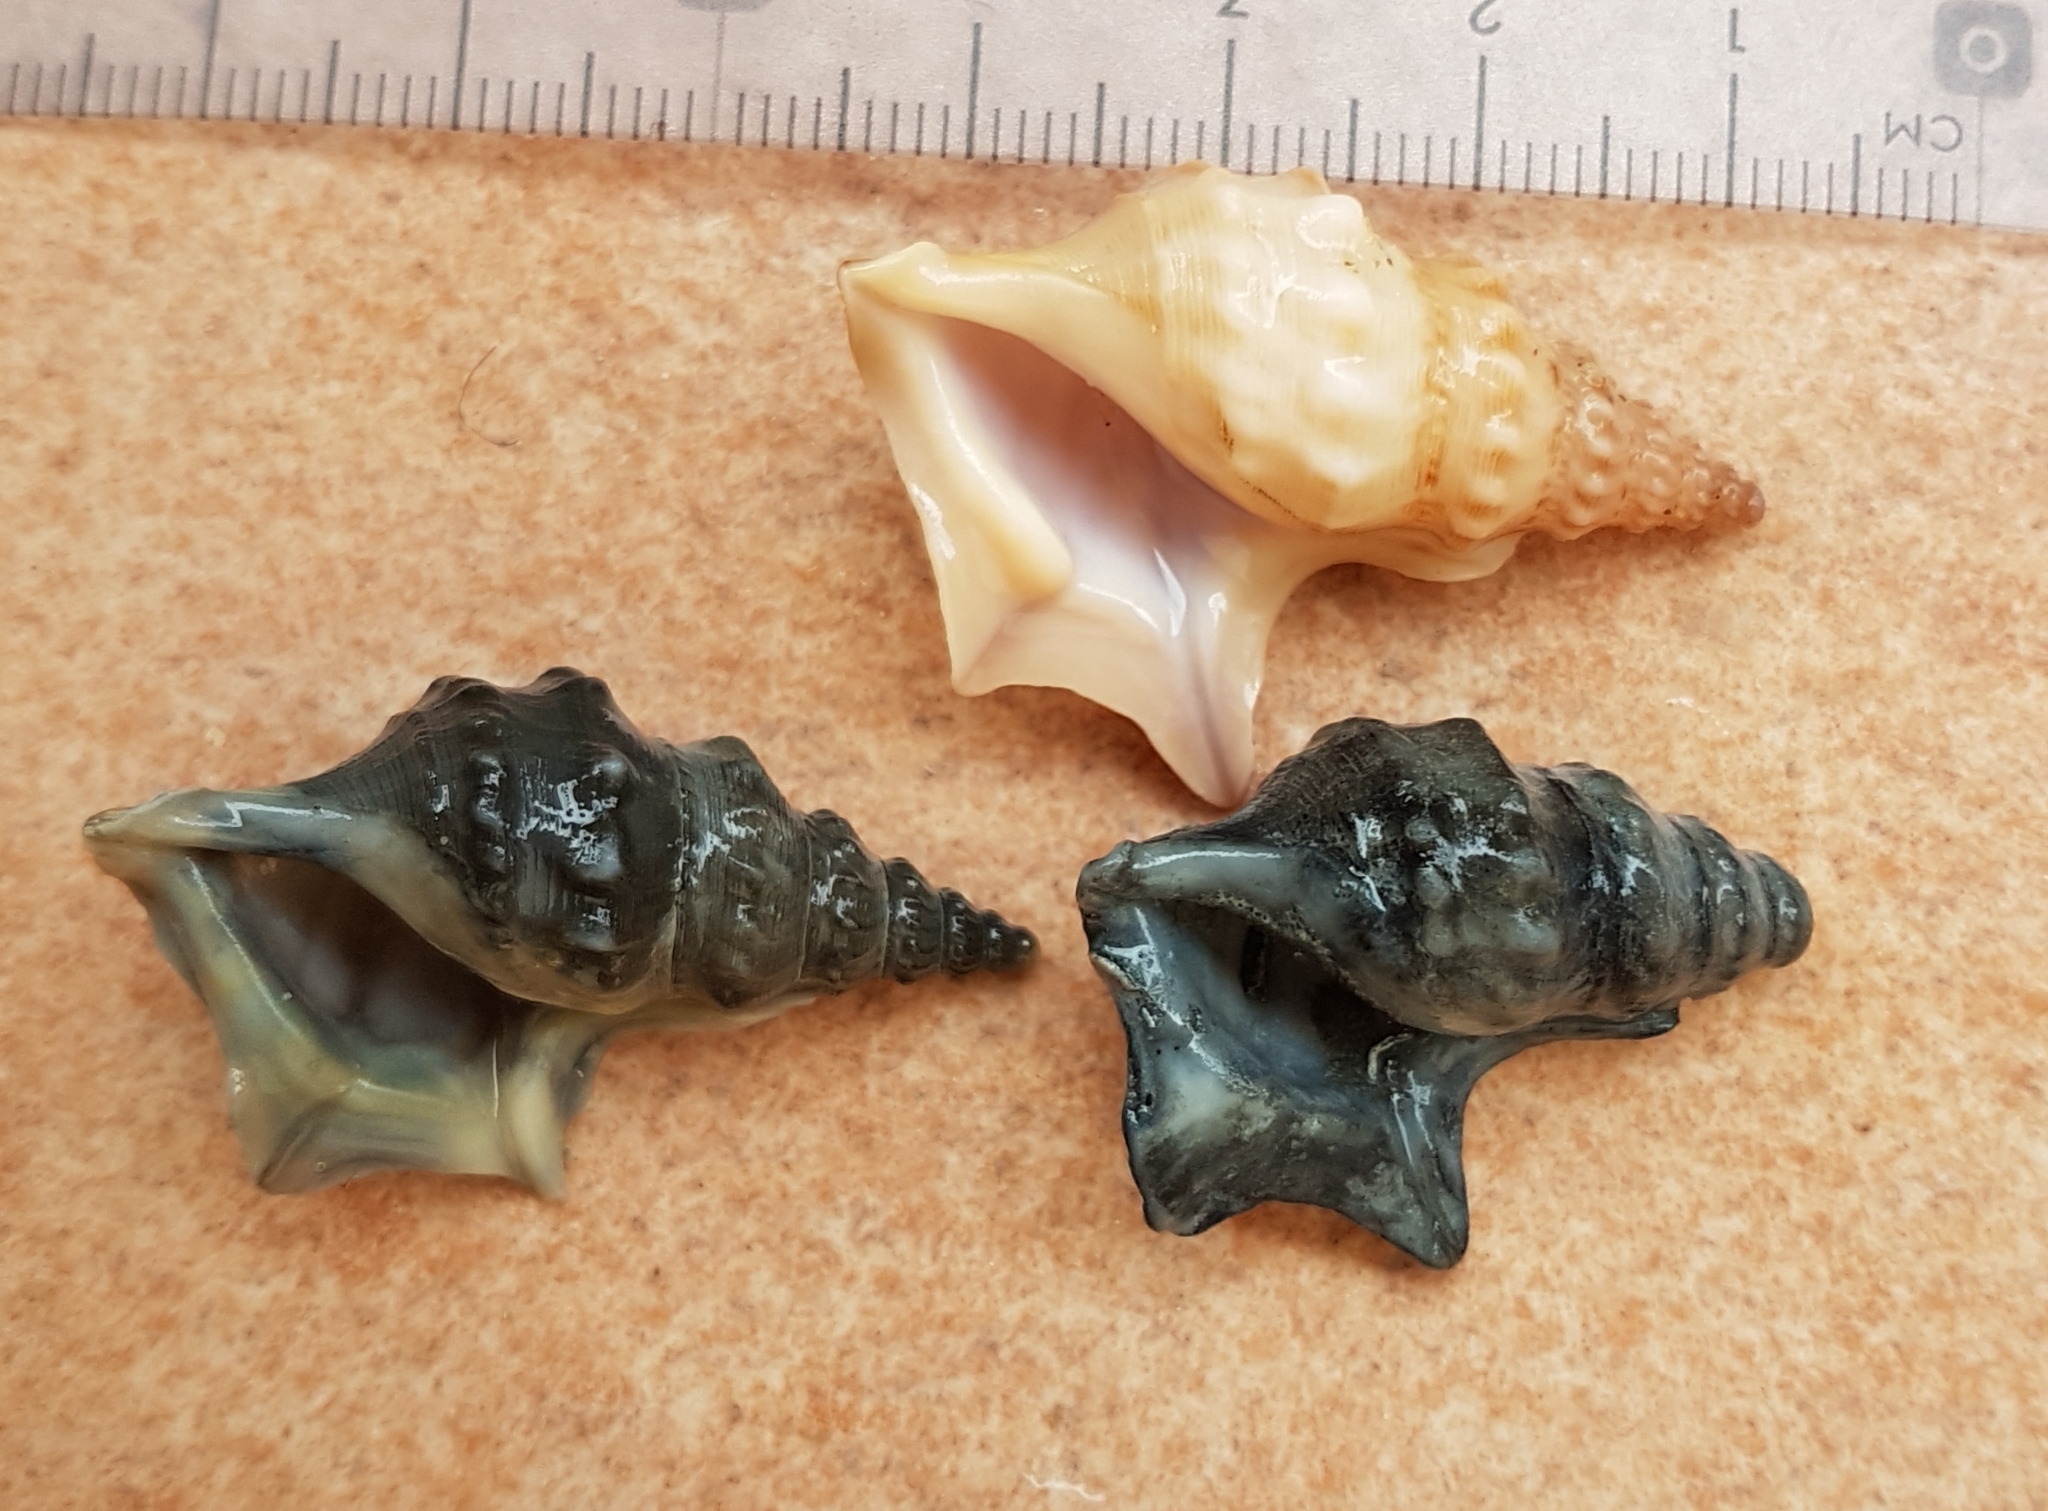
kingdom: Animalia
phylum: Mollusca
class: Gastropoda
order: Littorinimorpha
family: Aporrhaidae
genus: Aporrhais
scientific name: Aporrhais pespelecani
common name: Common pelican’s foot
